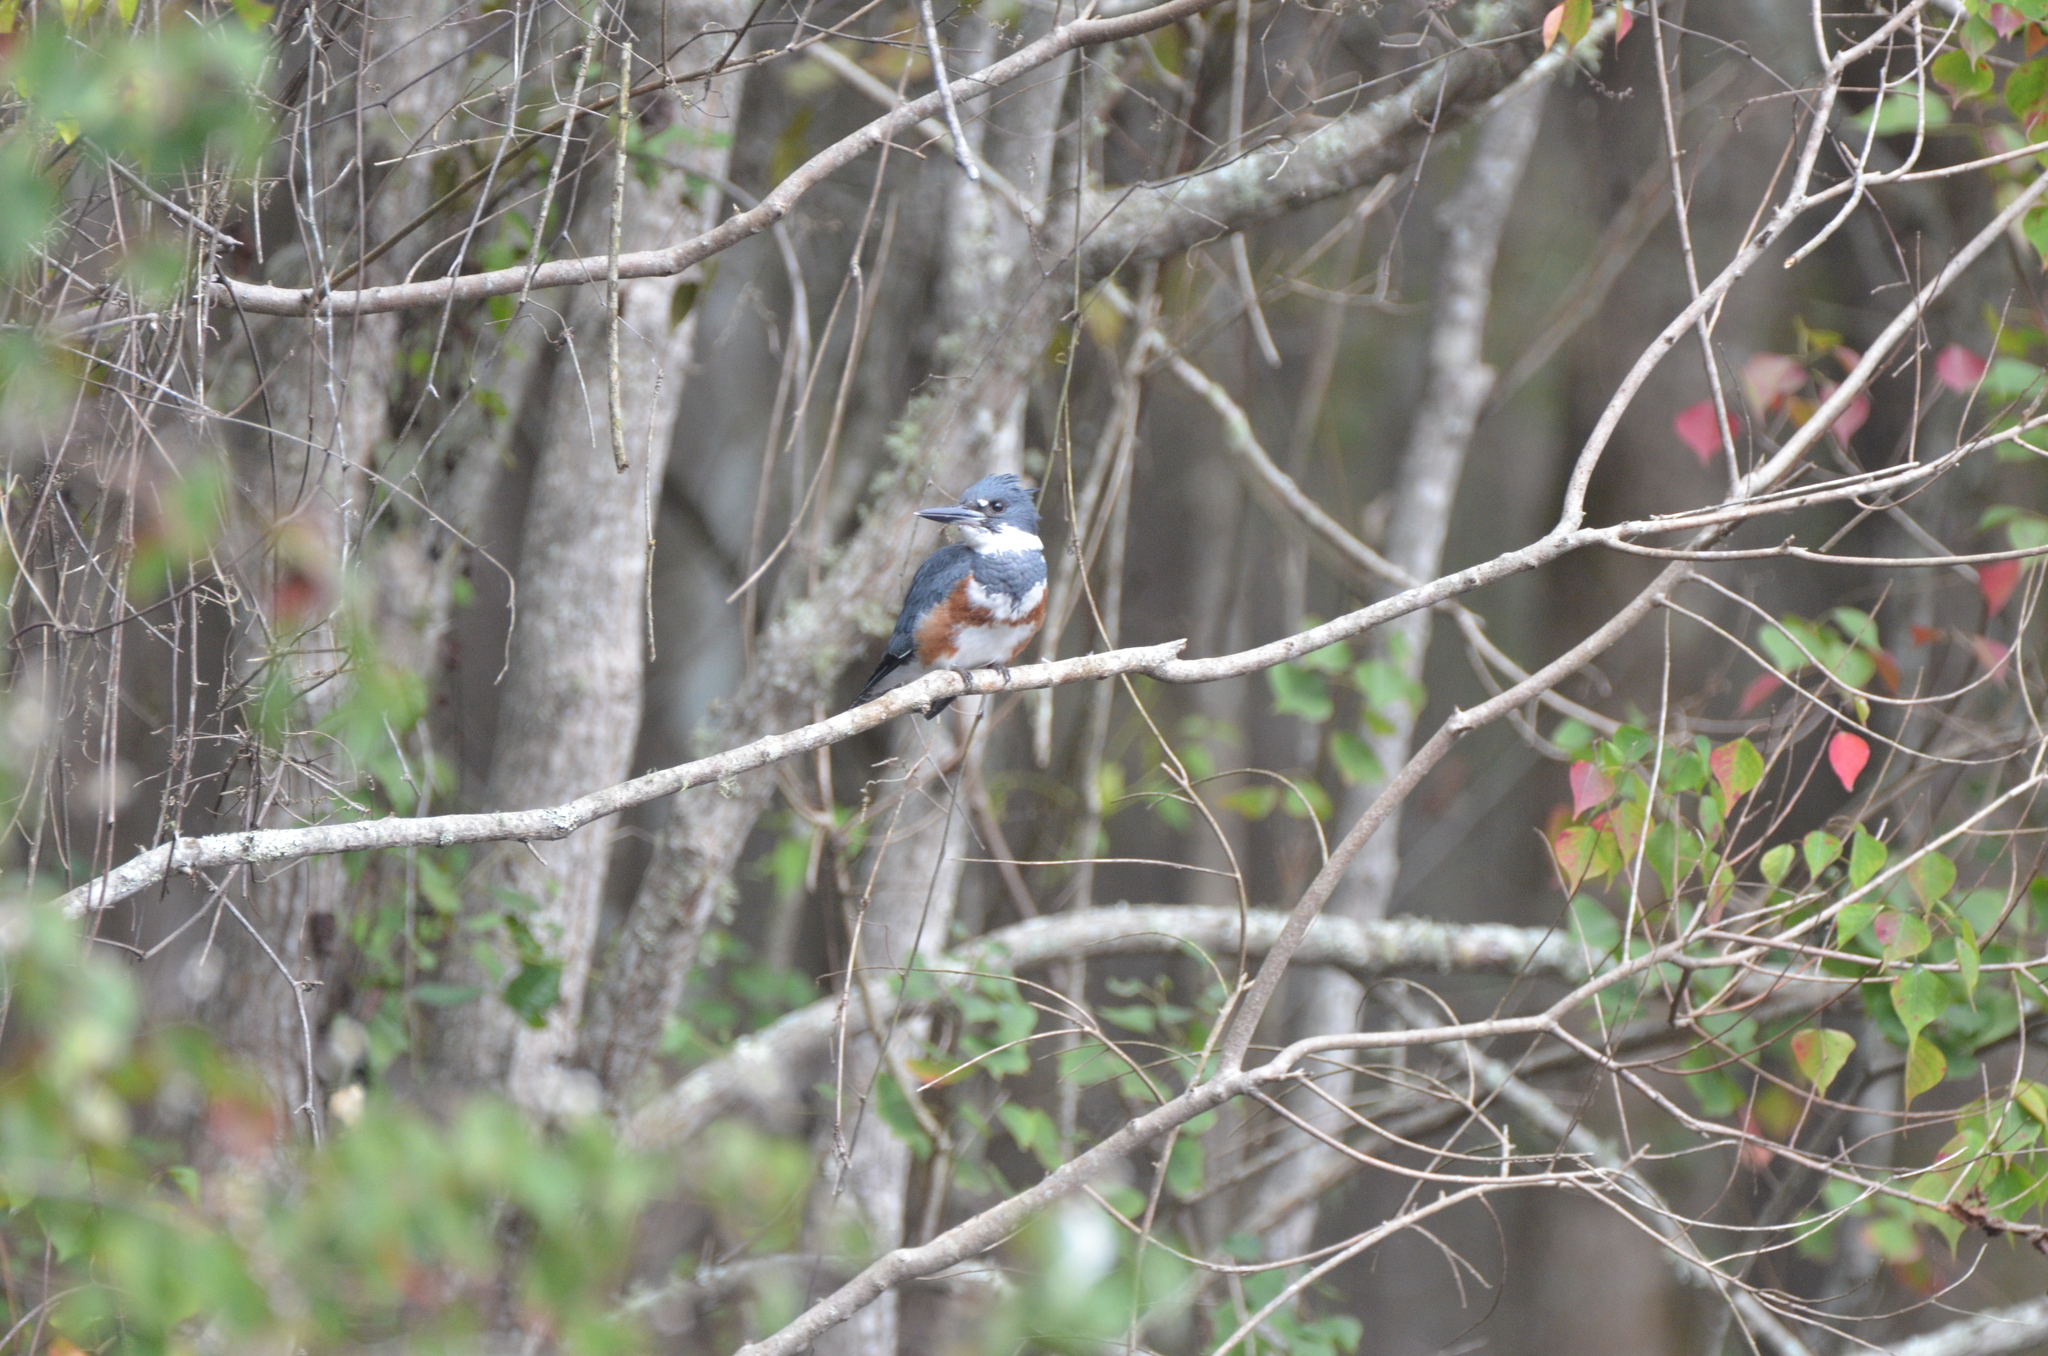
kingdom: Animalia
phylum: Chordata
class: Aves
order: Coraciiformes
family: Alcedinidae
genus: Megaceryle
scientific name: Megaceryle alcyon
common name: Belted kingfisher
